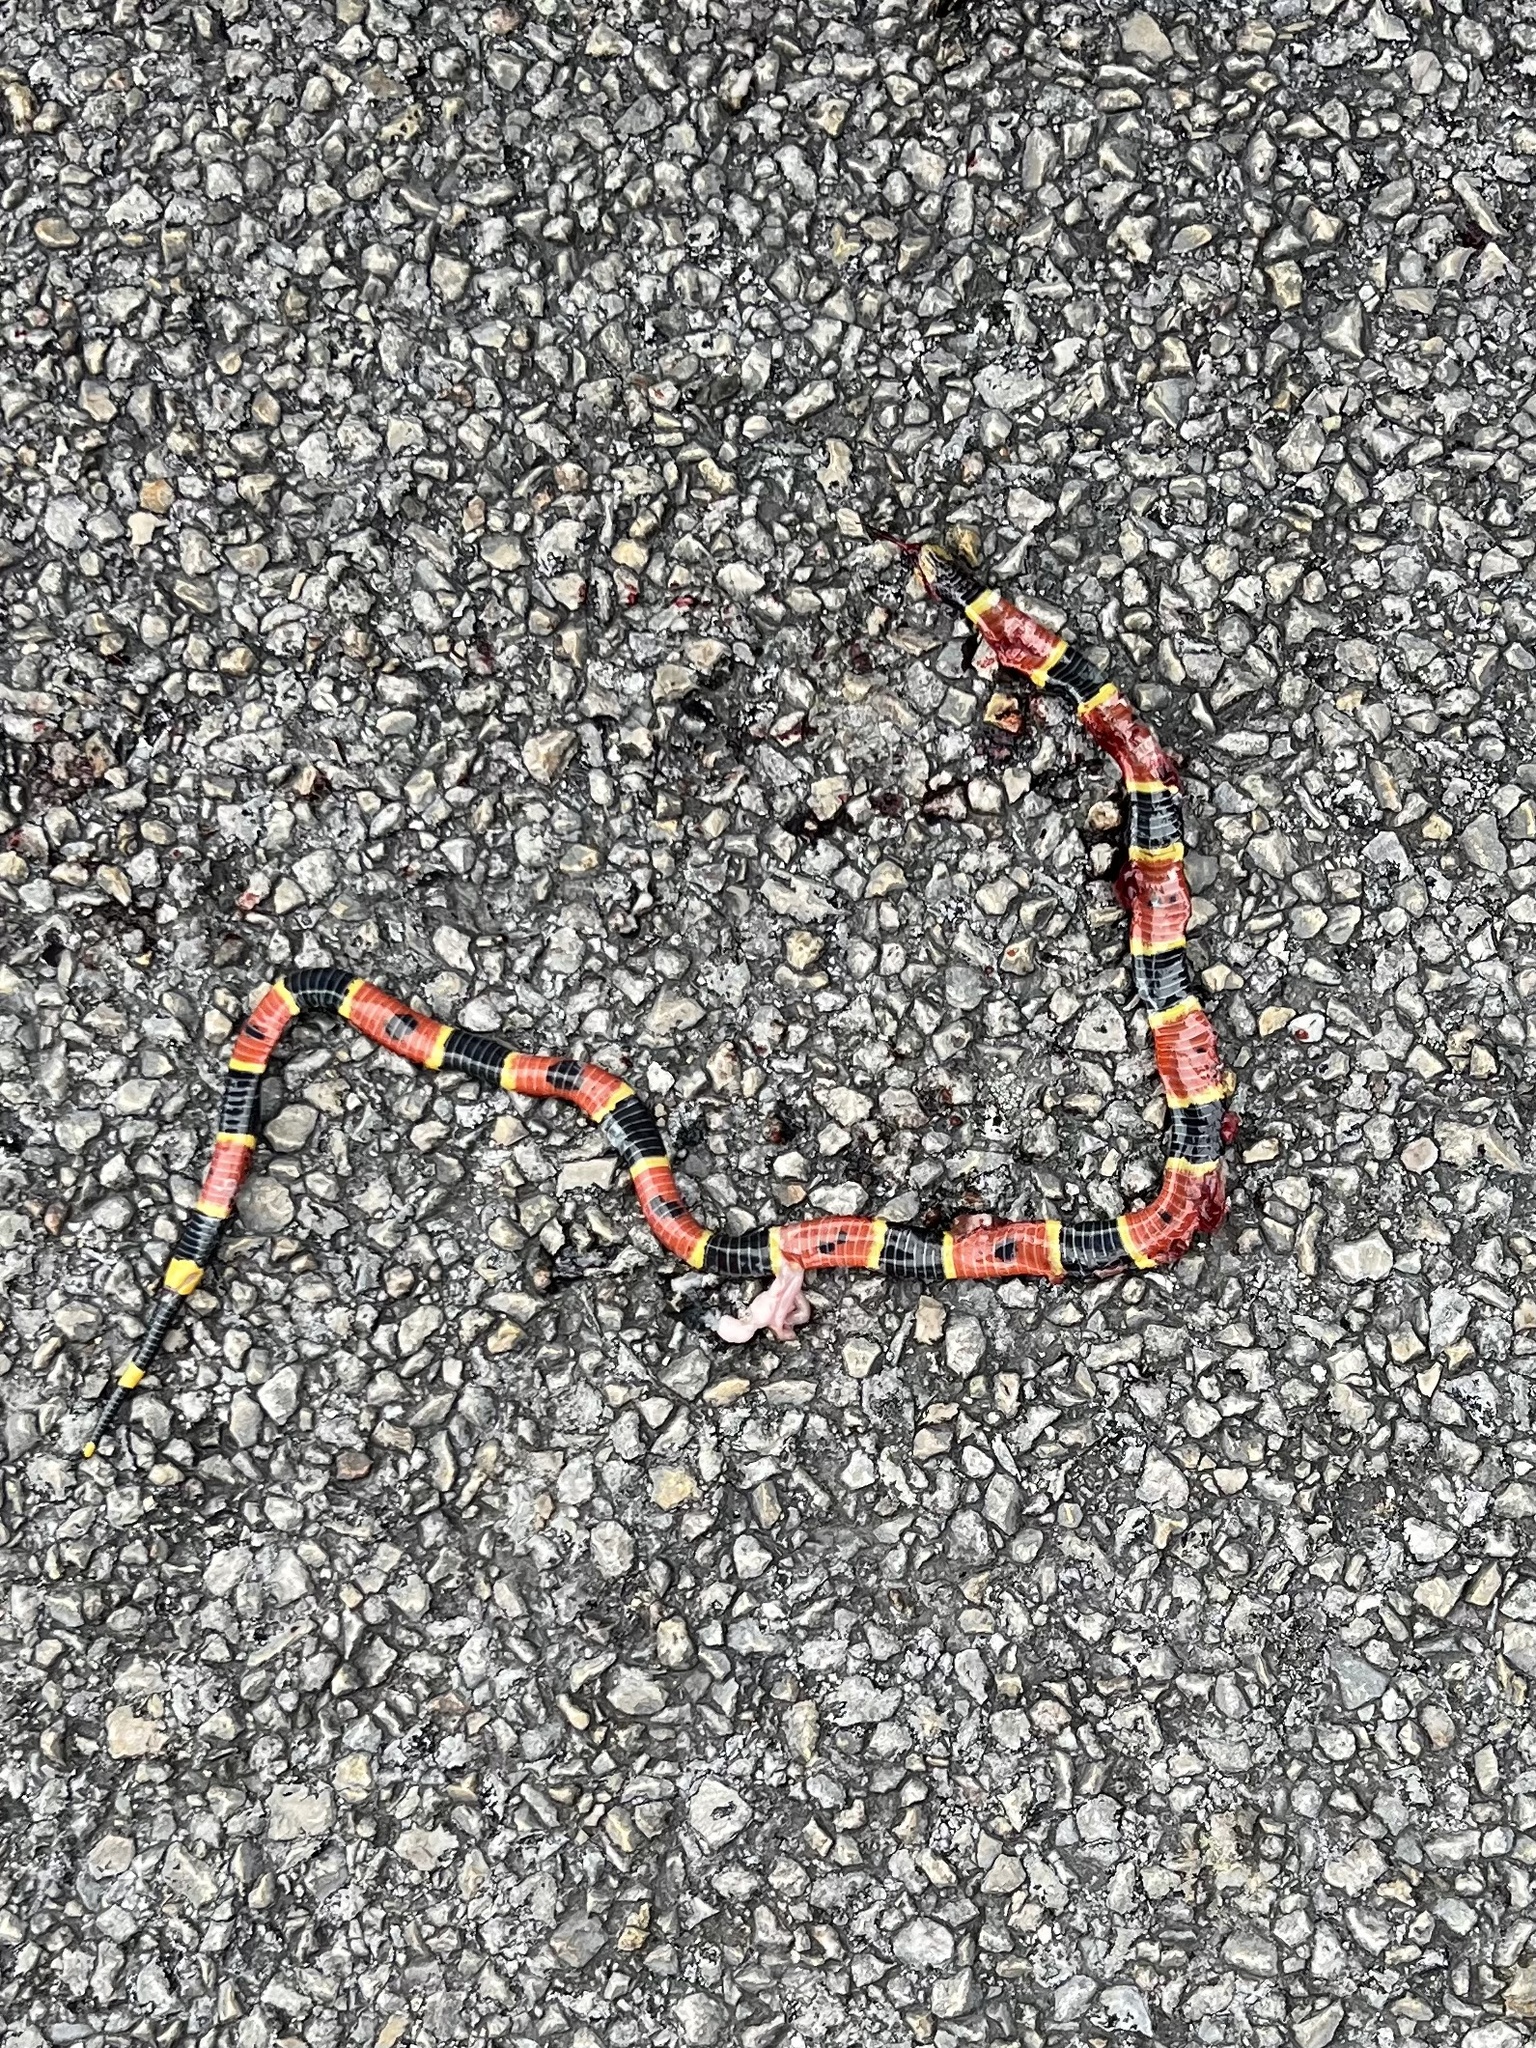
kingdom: Animalia
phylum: Chordata
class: Squamata
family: Elapidae
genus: Micrurus
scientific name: Micrurus tener
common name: Texas coral snake
